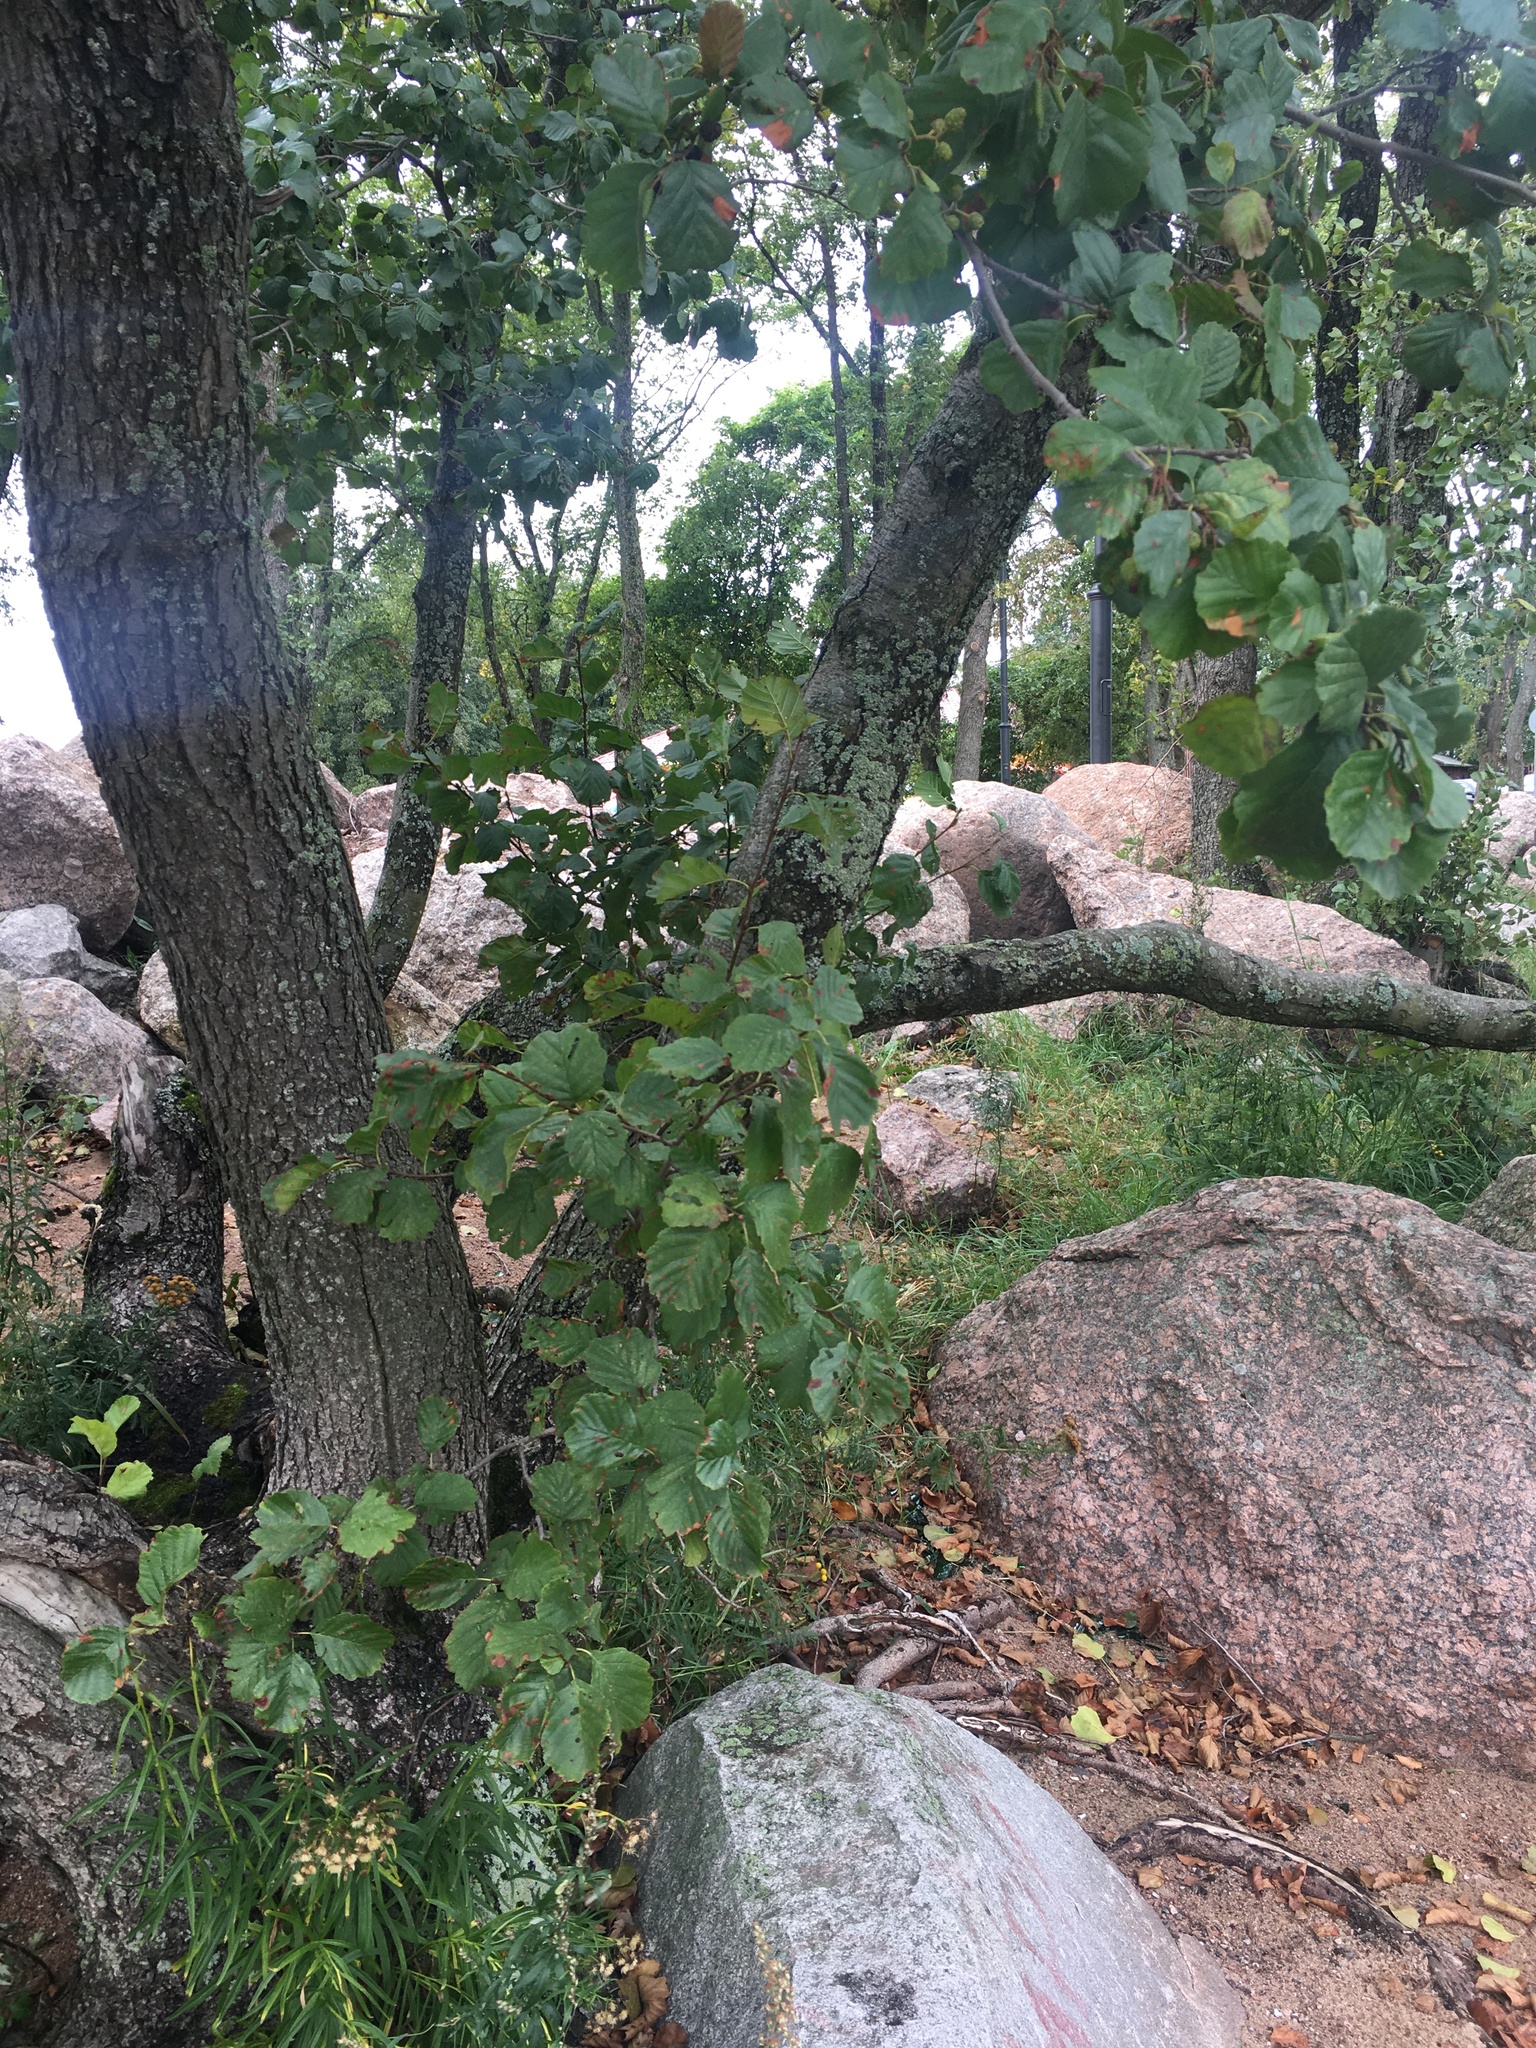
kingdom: Plantae
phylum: Tracheophyta
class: Magnoliopsida
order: Fagales
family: Betulaceae
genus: Alnus
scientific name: Alnus glutinosa
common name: Black alder
